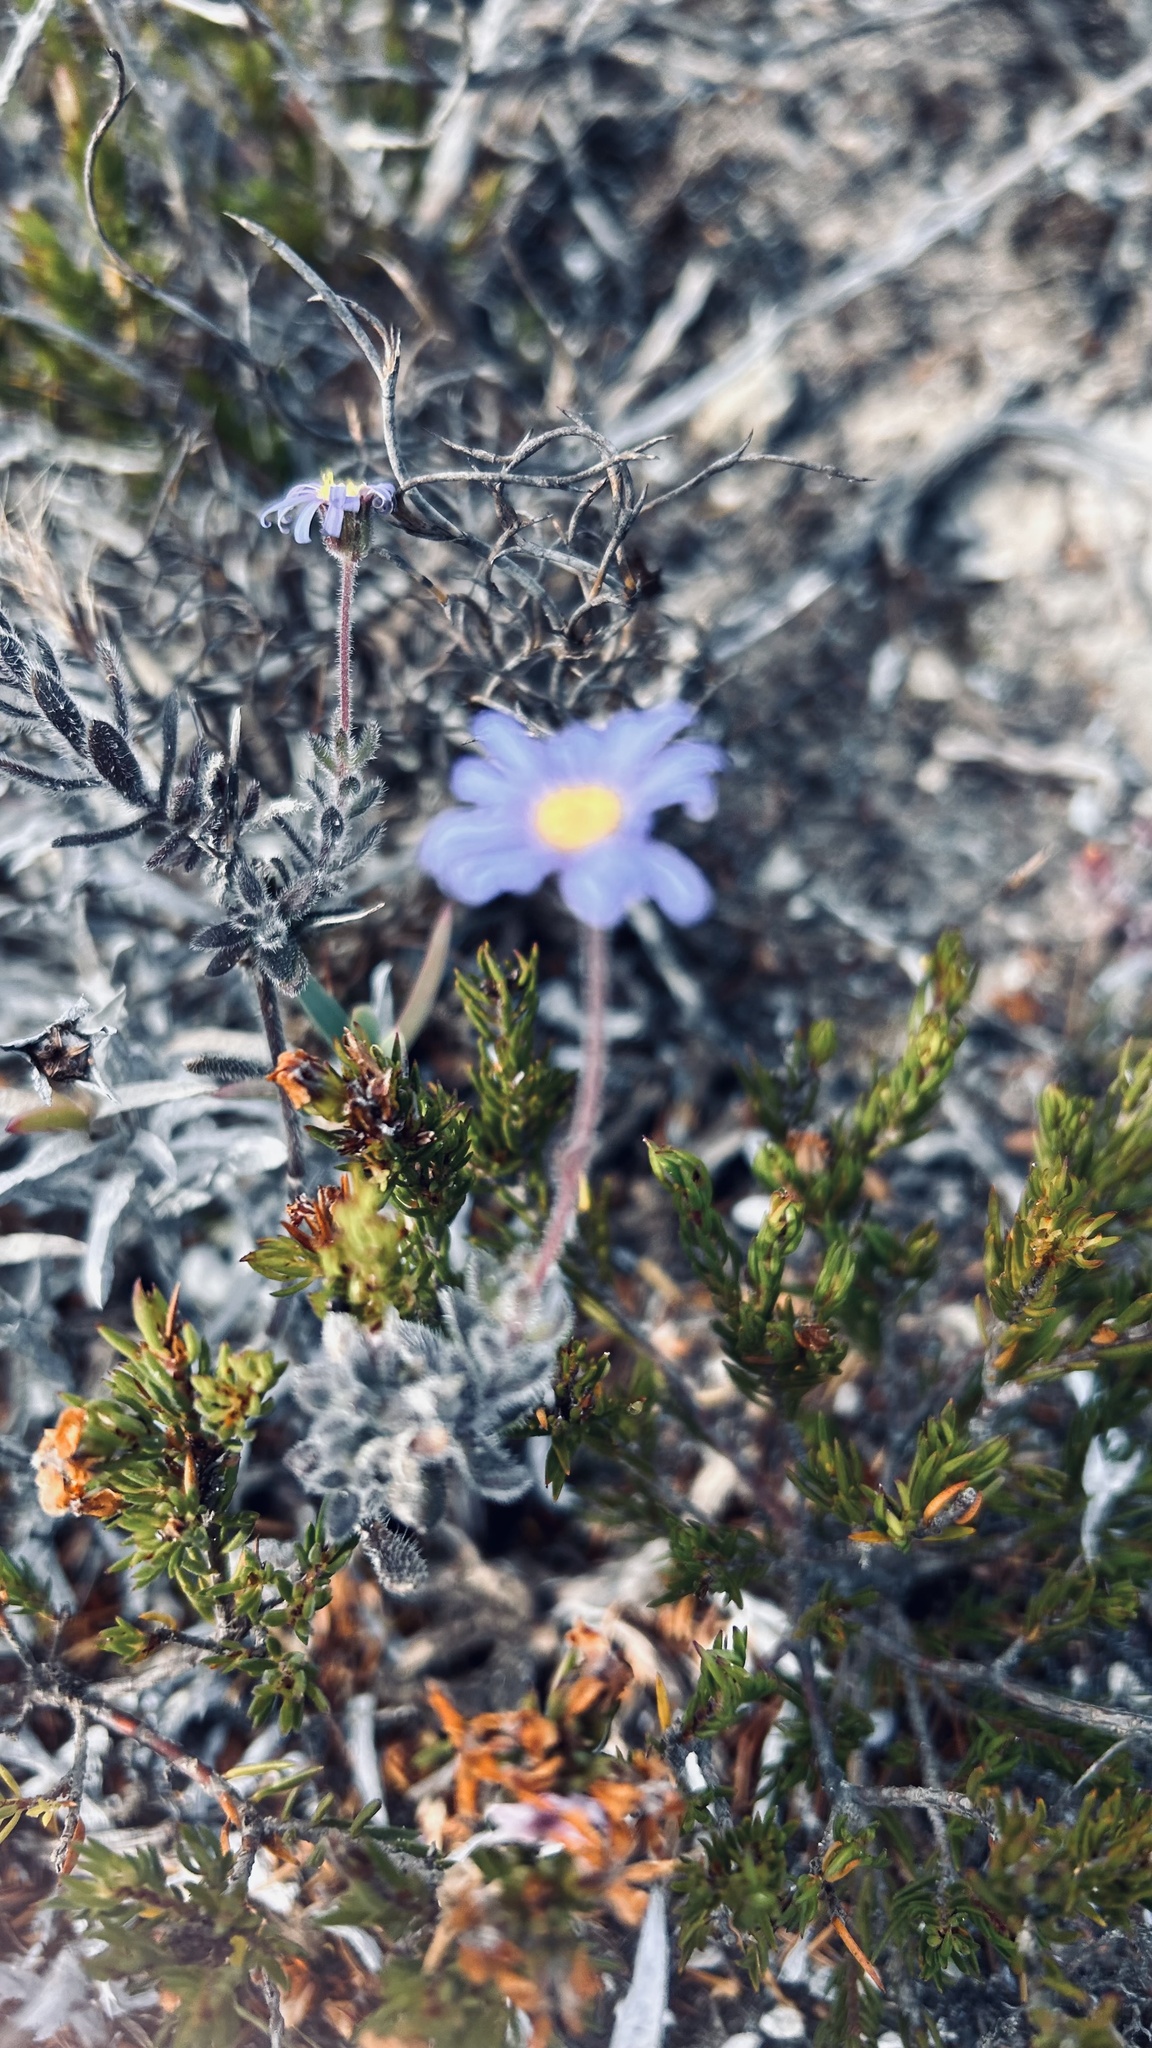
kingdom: Plantae
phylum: Tracheophyta
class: Magnoliopsida
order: Asterales
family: Asteraceae
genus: Felicia
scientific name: Felicia amoena
